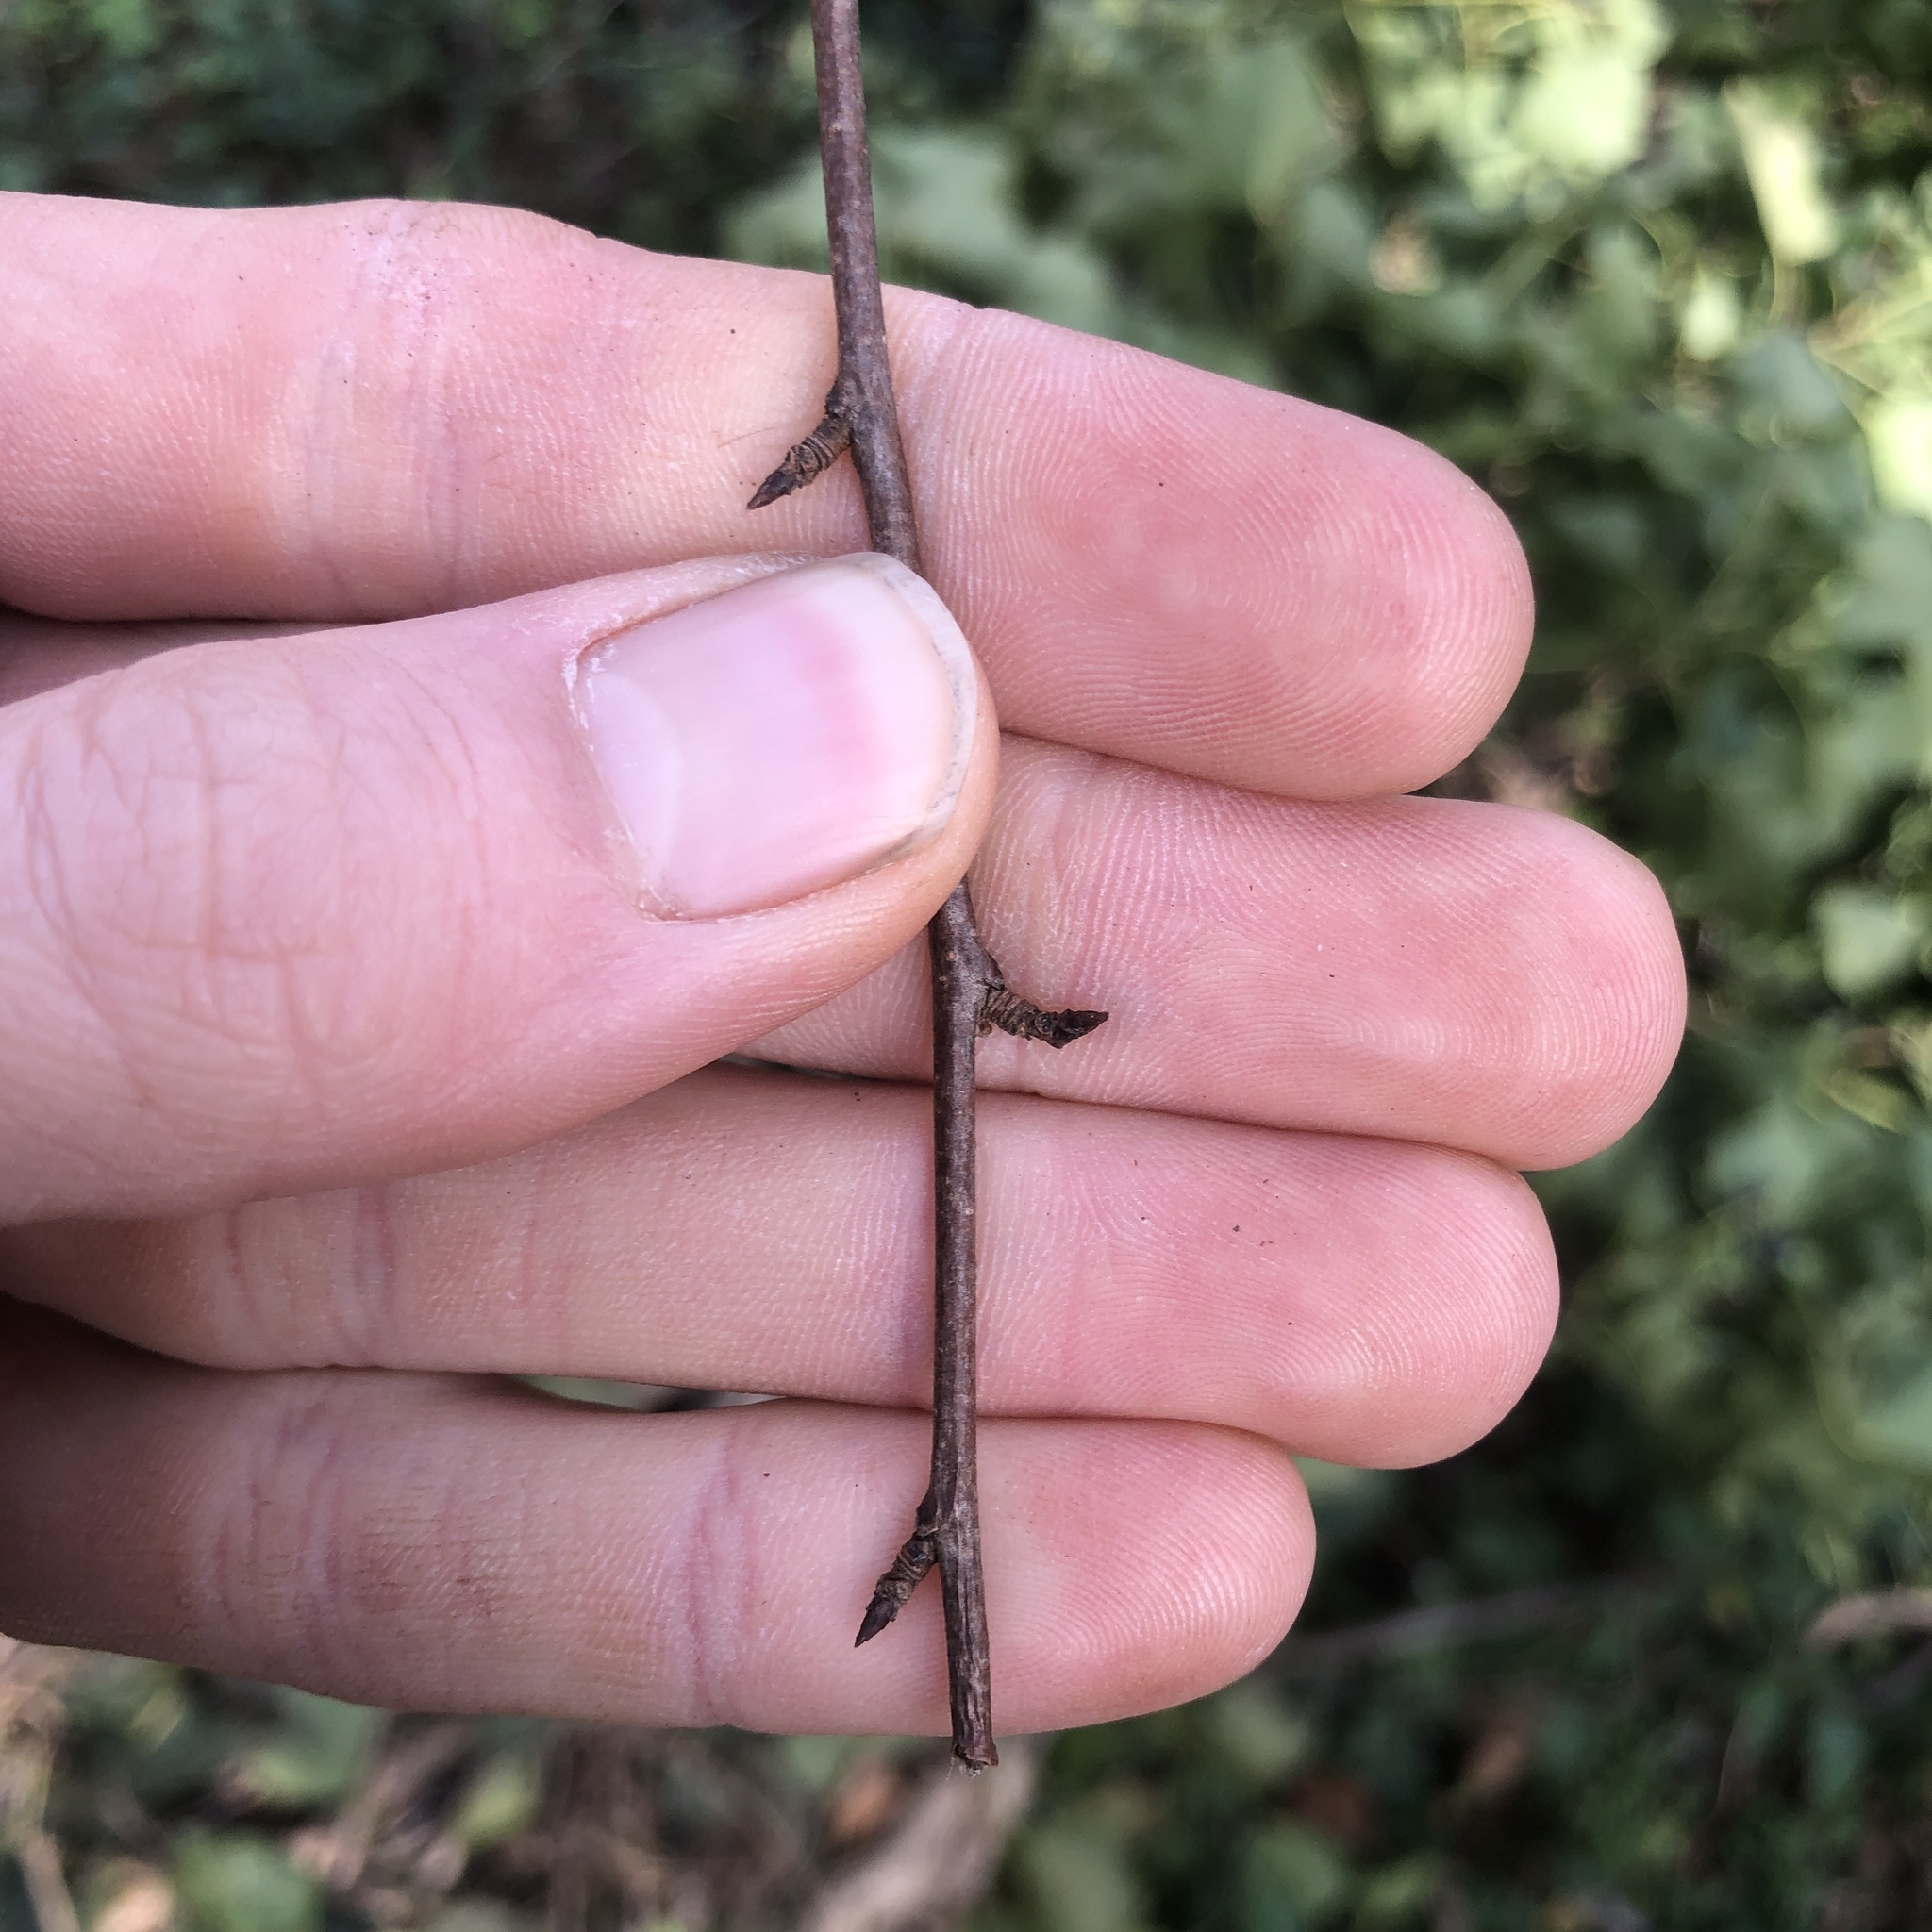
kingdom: Plantae
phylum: Tracheophyta
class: Magnoliopsida
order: Rosales
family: Rosaceae
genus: Prunus
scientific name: Prunus avium
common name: Sweet cherry
